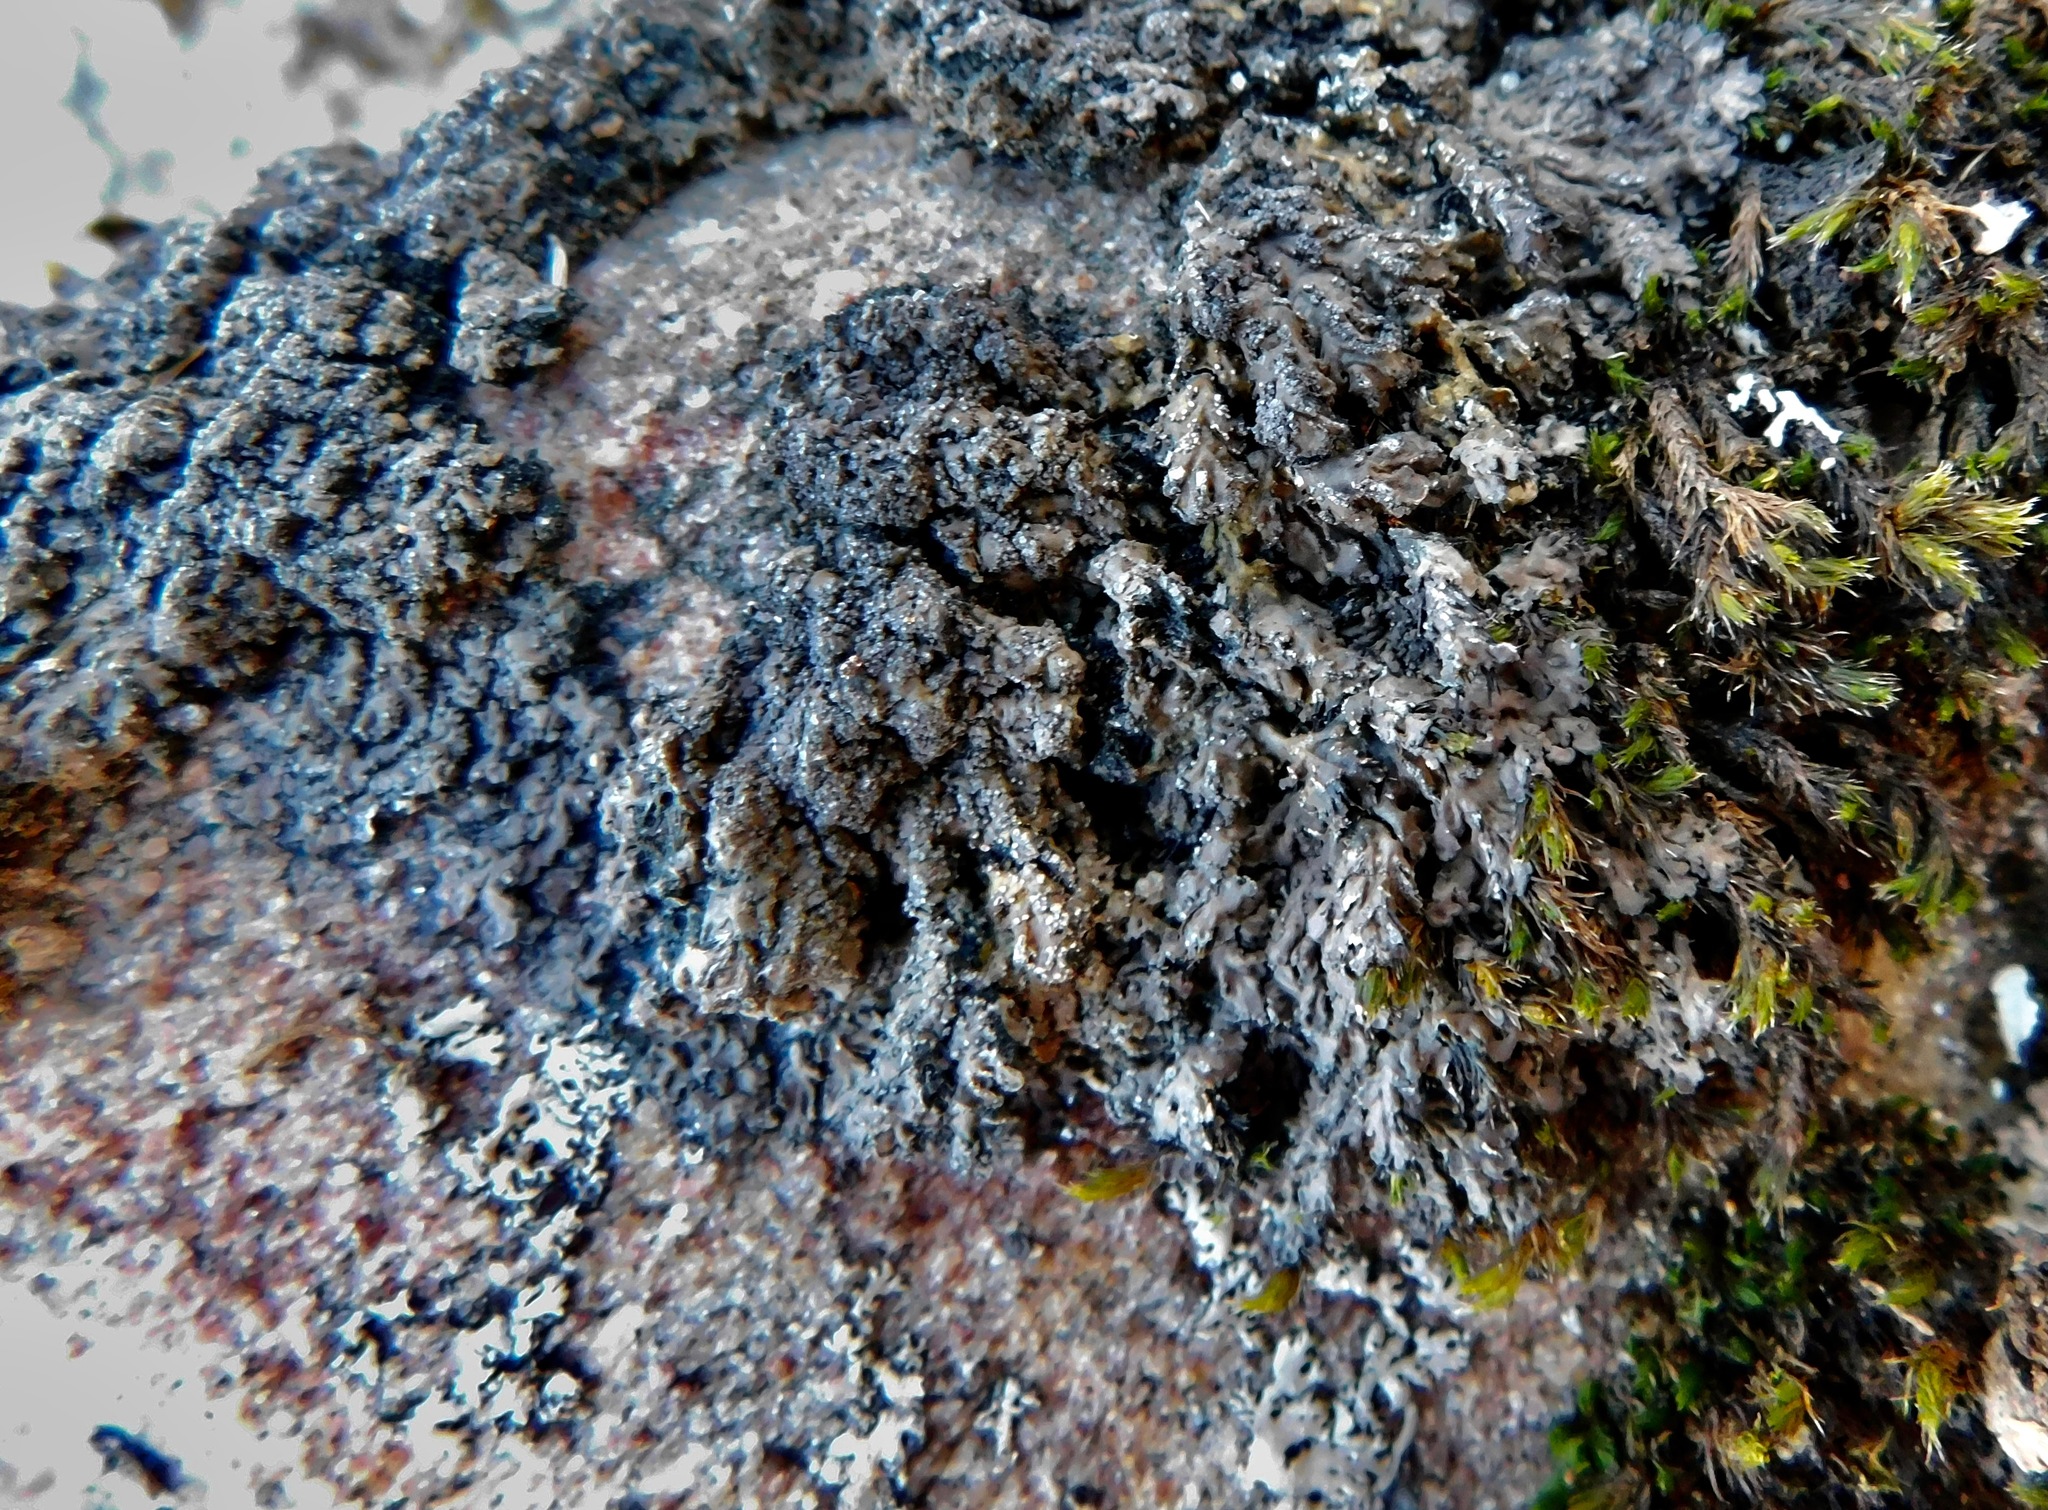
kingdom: Fungi
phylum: Ascomycota
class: Lecanoromycetes
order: Peltigerales
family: Pannariaceae
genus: Parmeliella
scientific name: Parmeliella thriptophylla
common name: Black-bordered shingle lichen
